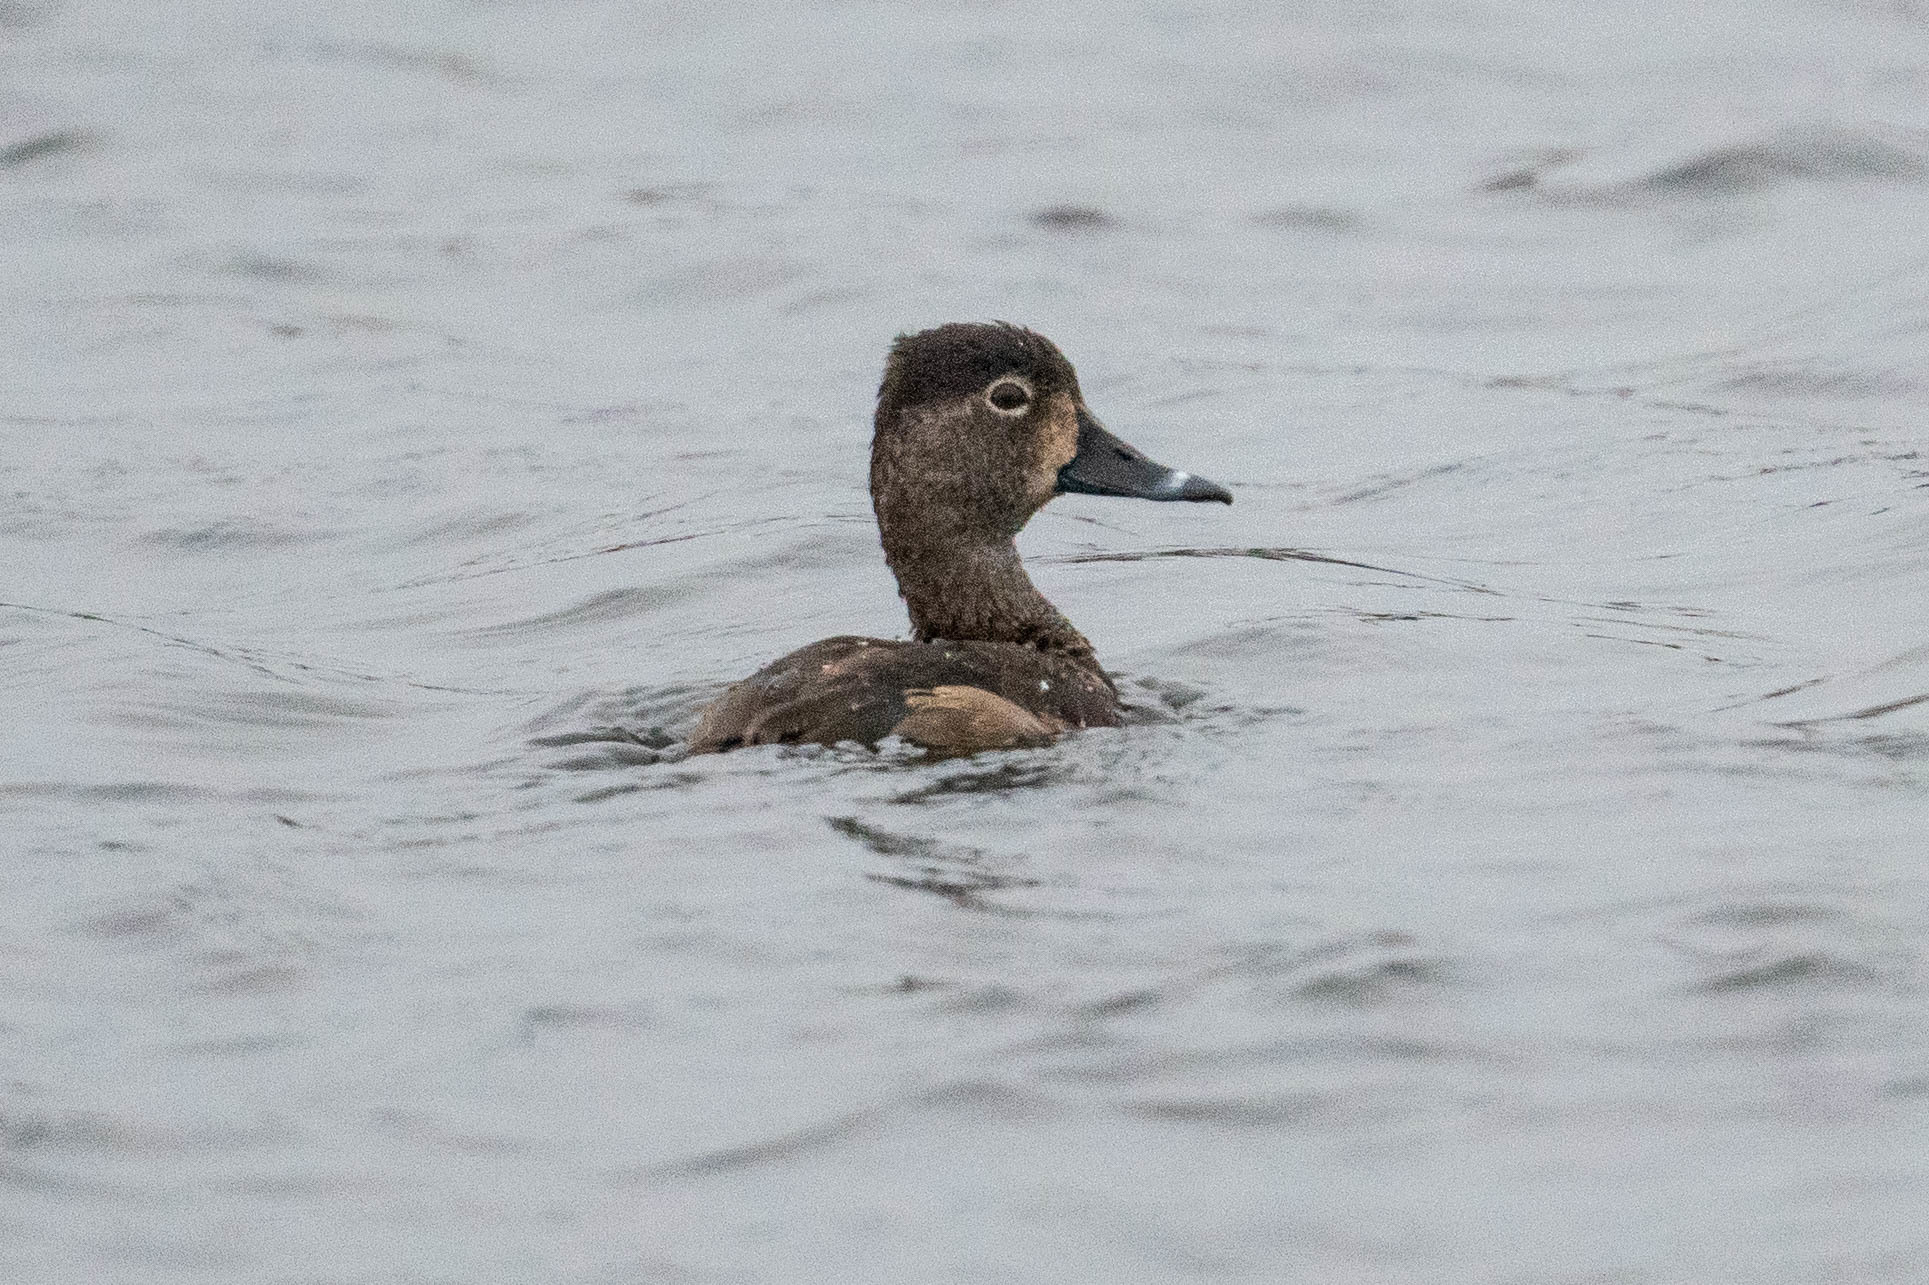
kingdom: Animalia
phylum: Chordata
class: Aves
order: Anseriformes
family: Anatidae
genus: Aythya
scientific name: Aythya collaris
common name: Ring-necked duck
